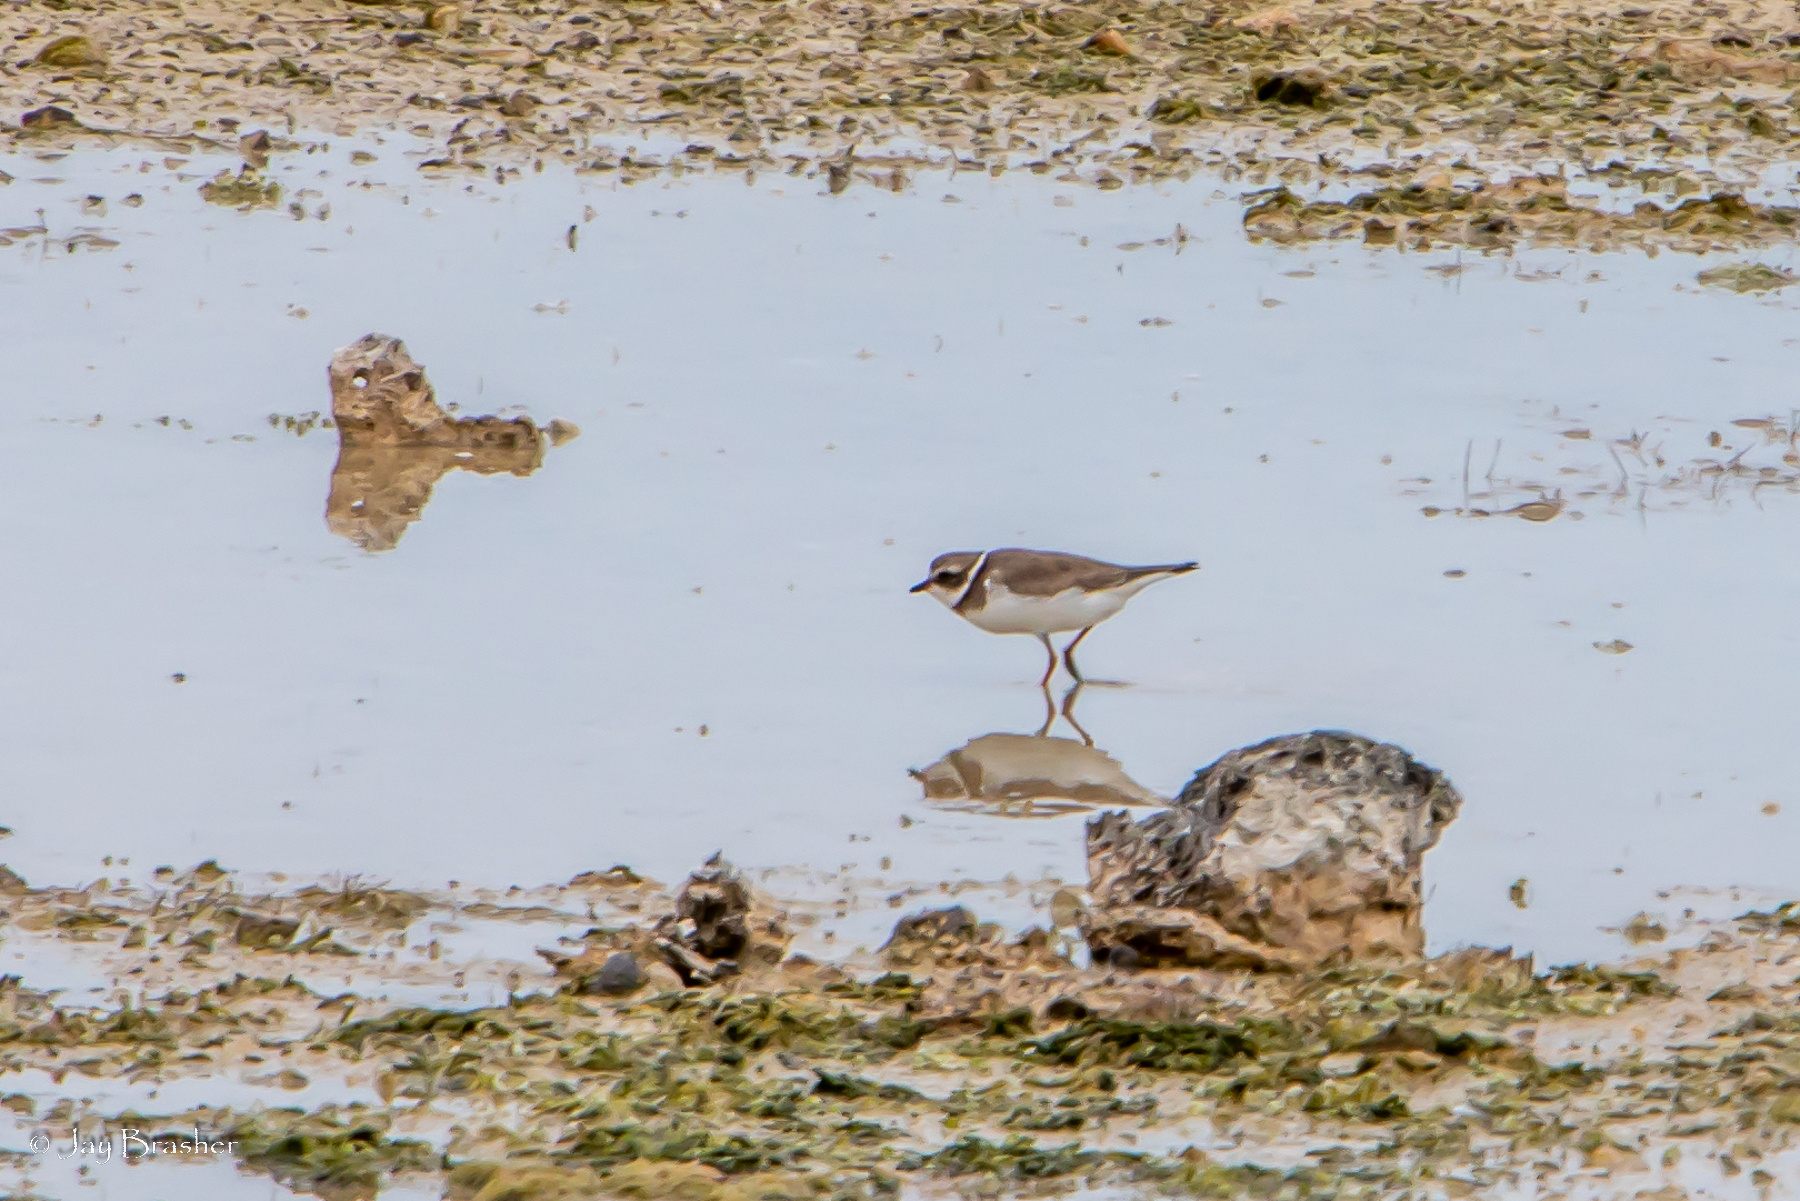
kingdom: Animalia
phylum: Chordata
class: Aves
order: Charadriiformes
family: Charadriidae
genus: Charadrius
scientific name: Charadrius semipalmatus
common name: Semipalmated plover
